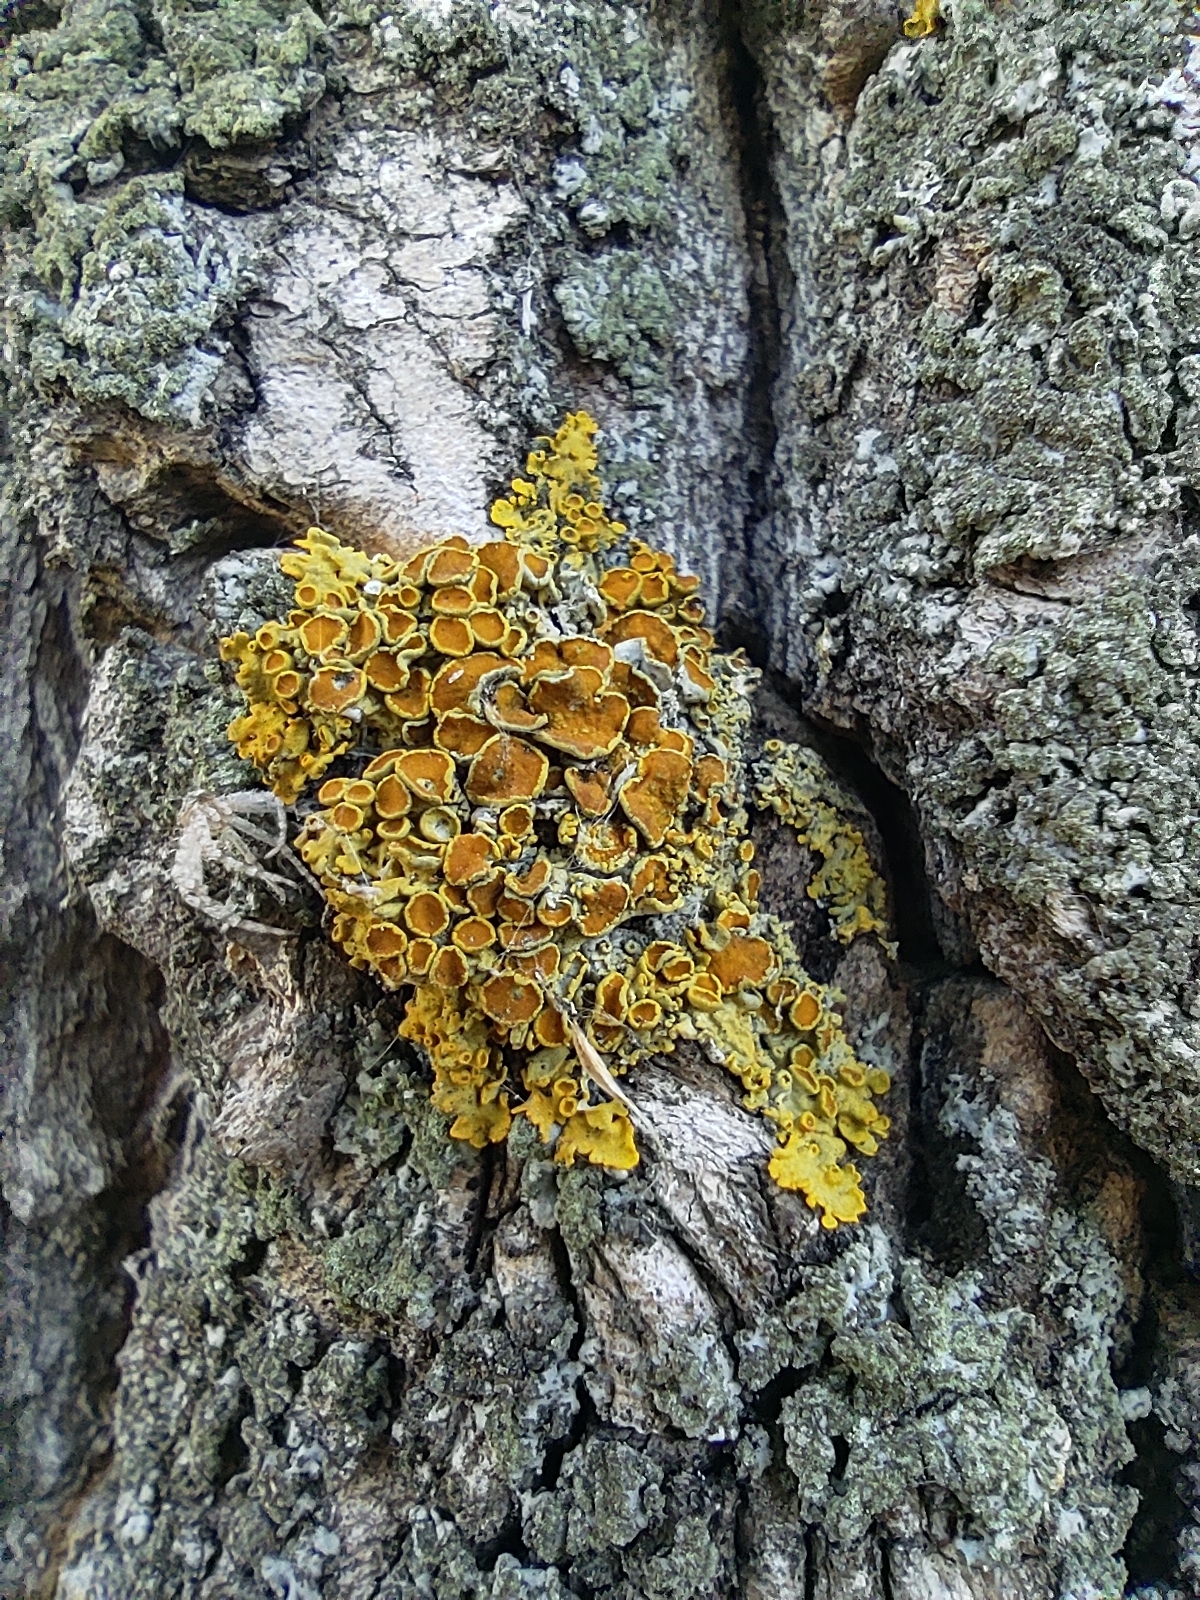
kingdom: Fungi
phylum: Ascomycota
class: Lecanoromycetes
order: Teloschistales
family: Teloschistaceae
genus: Xanthoria
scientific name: Xanthoria parietina
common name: Common orange lichen
